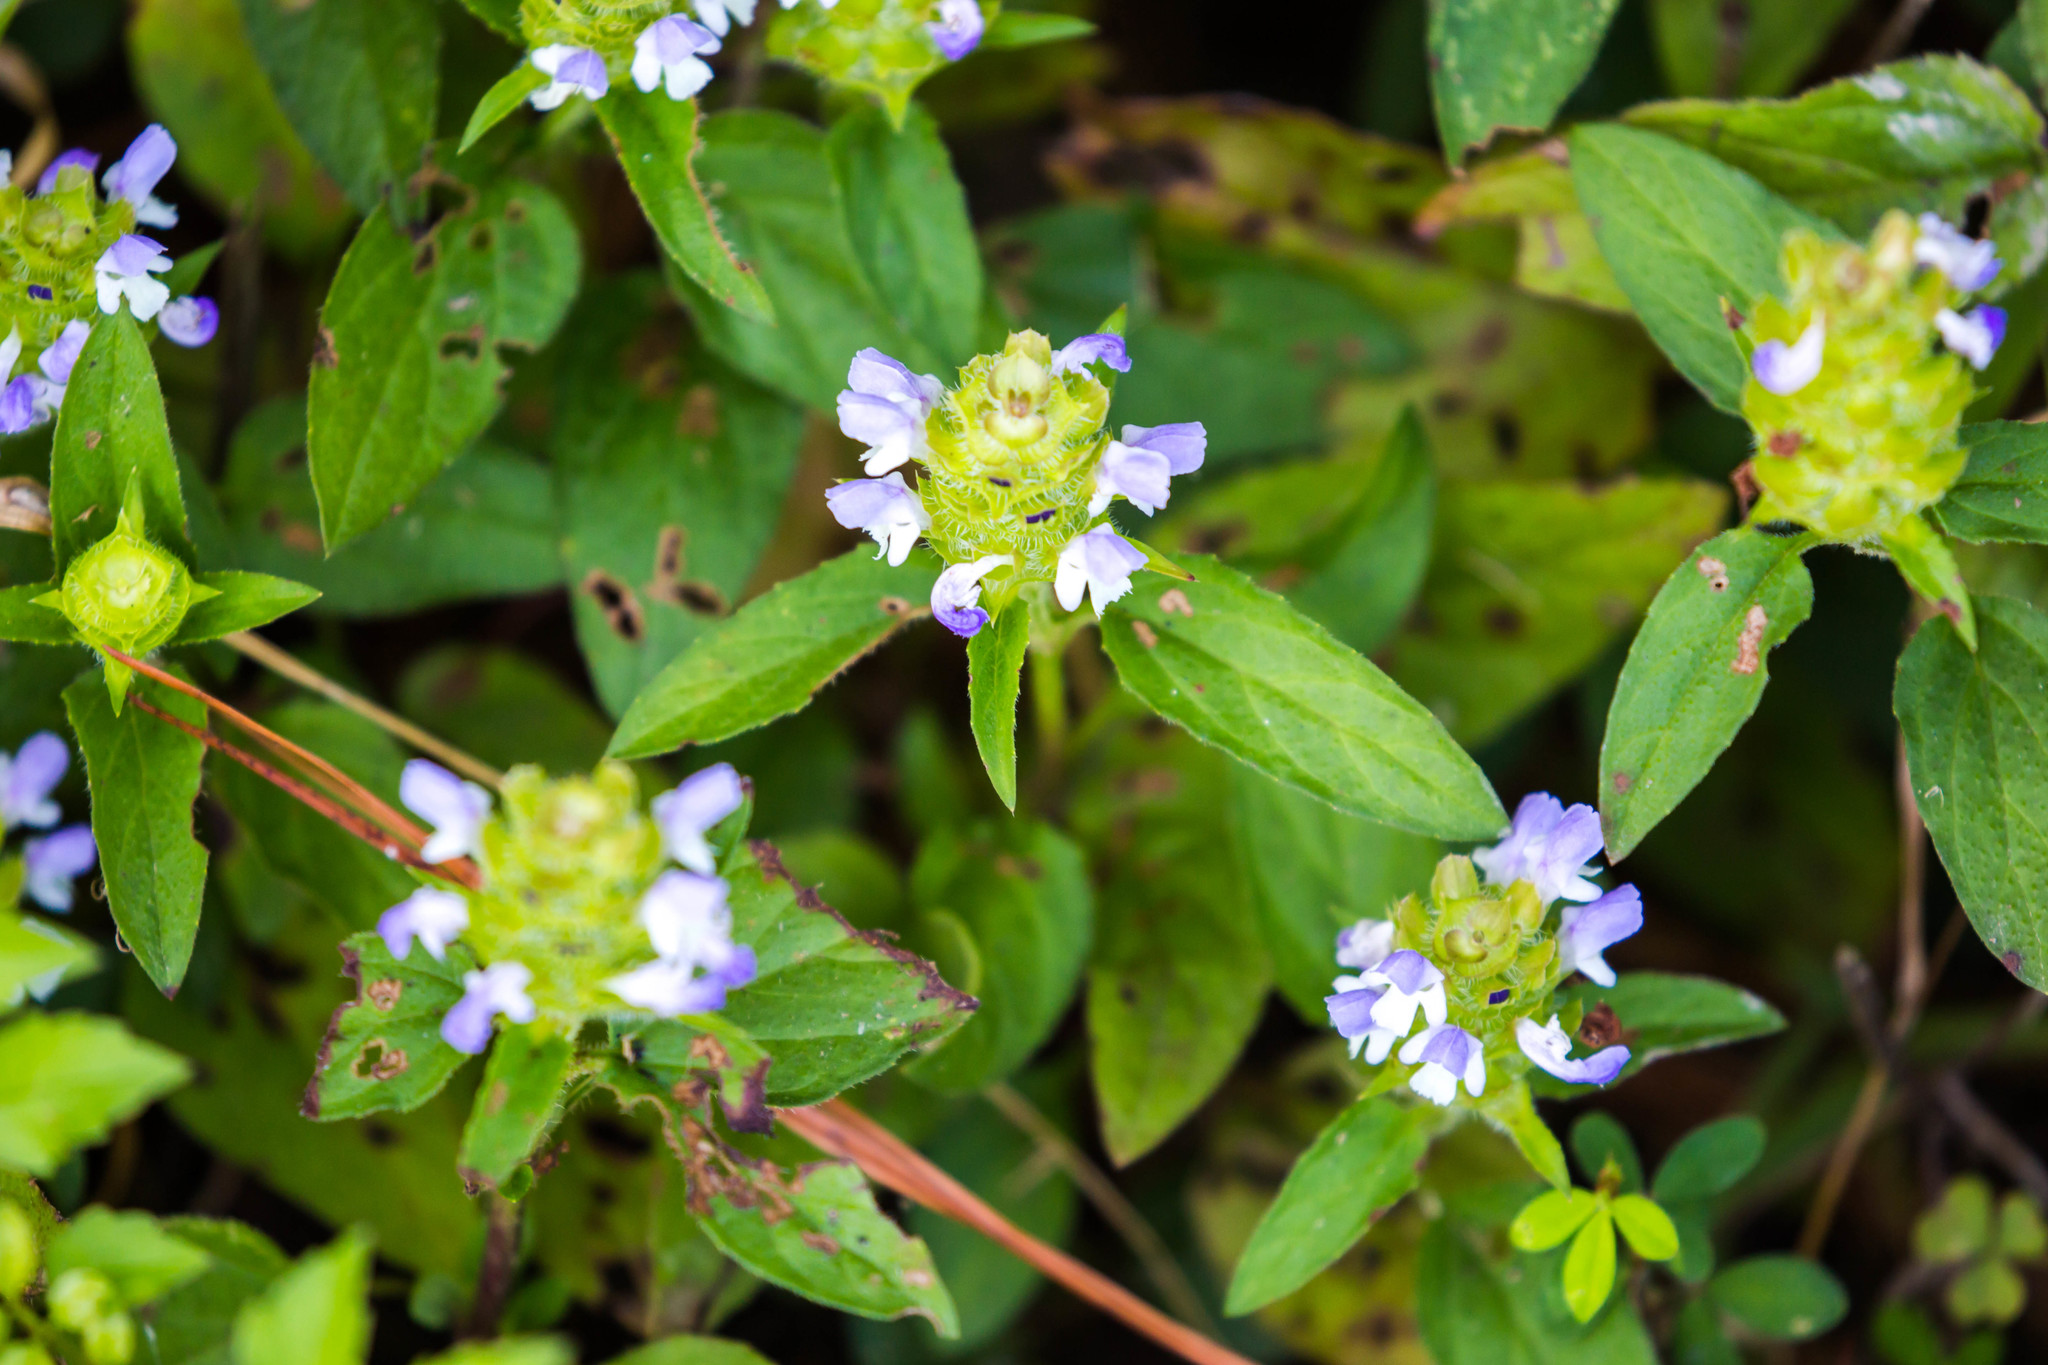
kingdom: Plantae
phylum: Tracheophyta
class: Magnoliopsida
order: Lamiales
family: Lamiaceae
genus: Prunella
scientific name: Prunella vulgaris
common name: Heal-all
